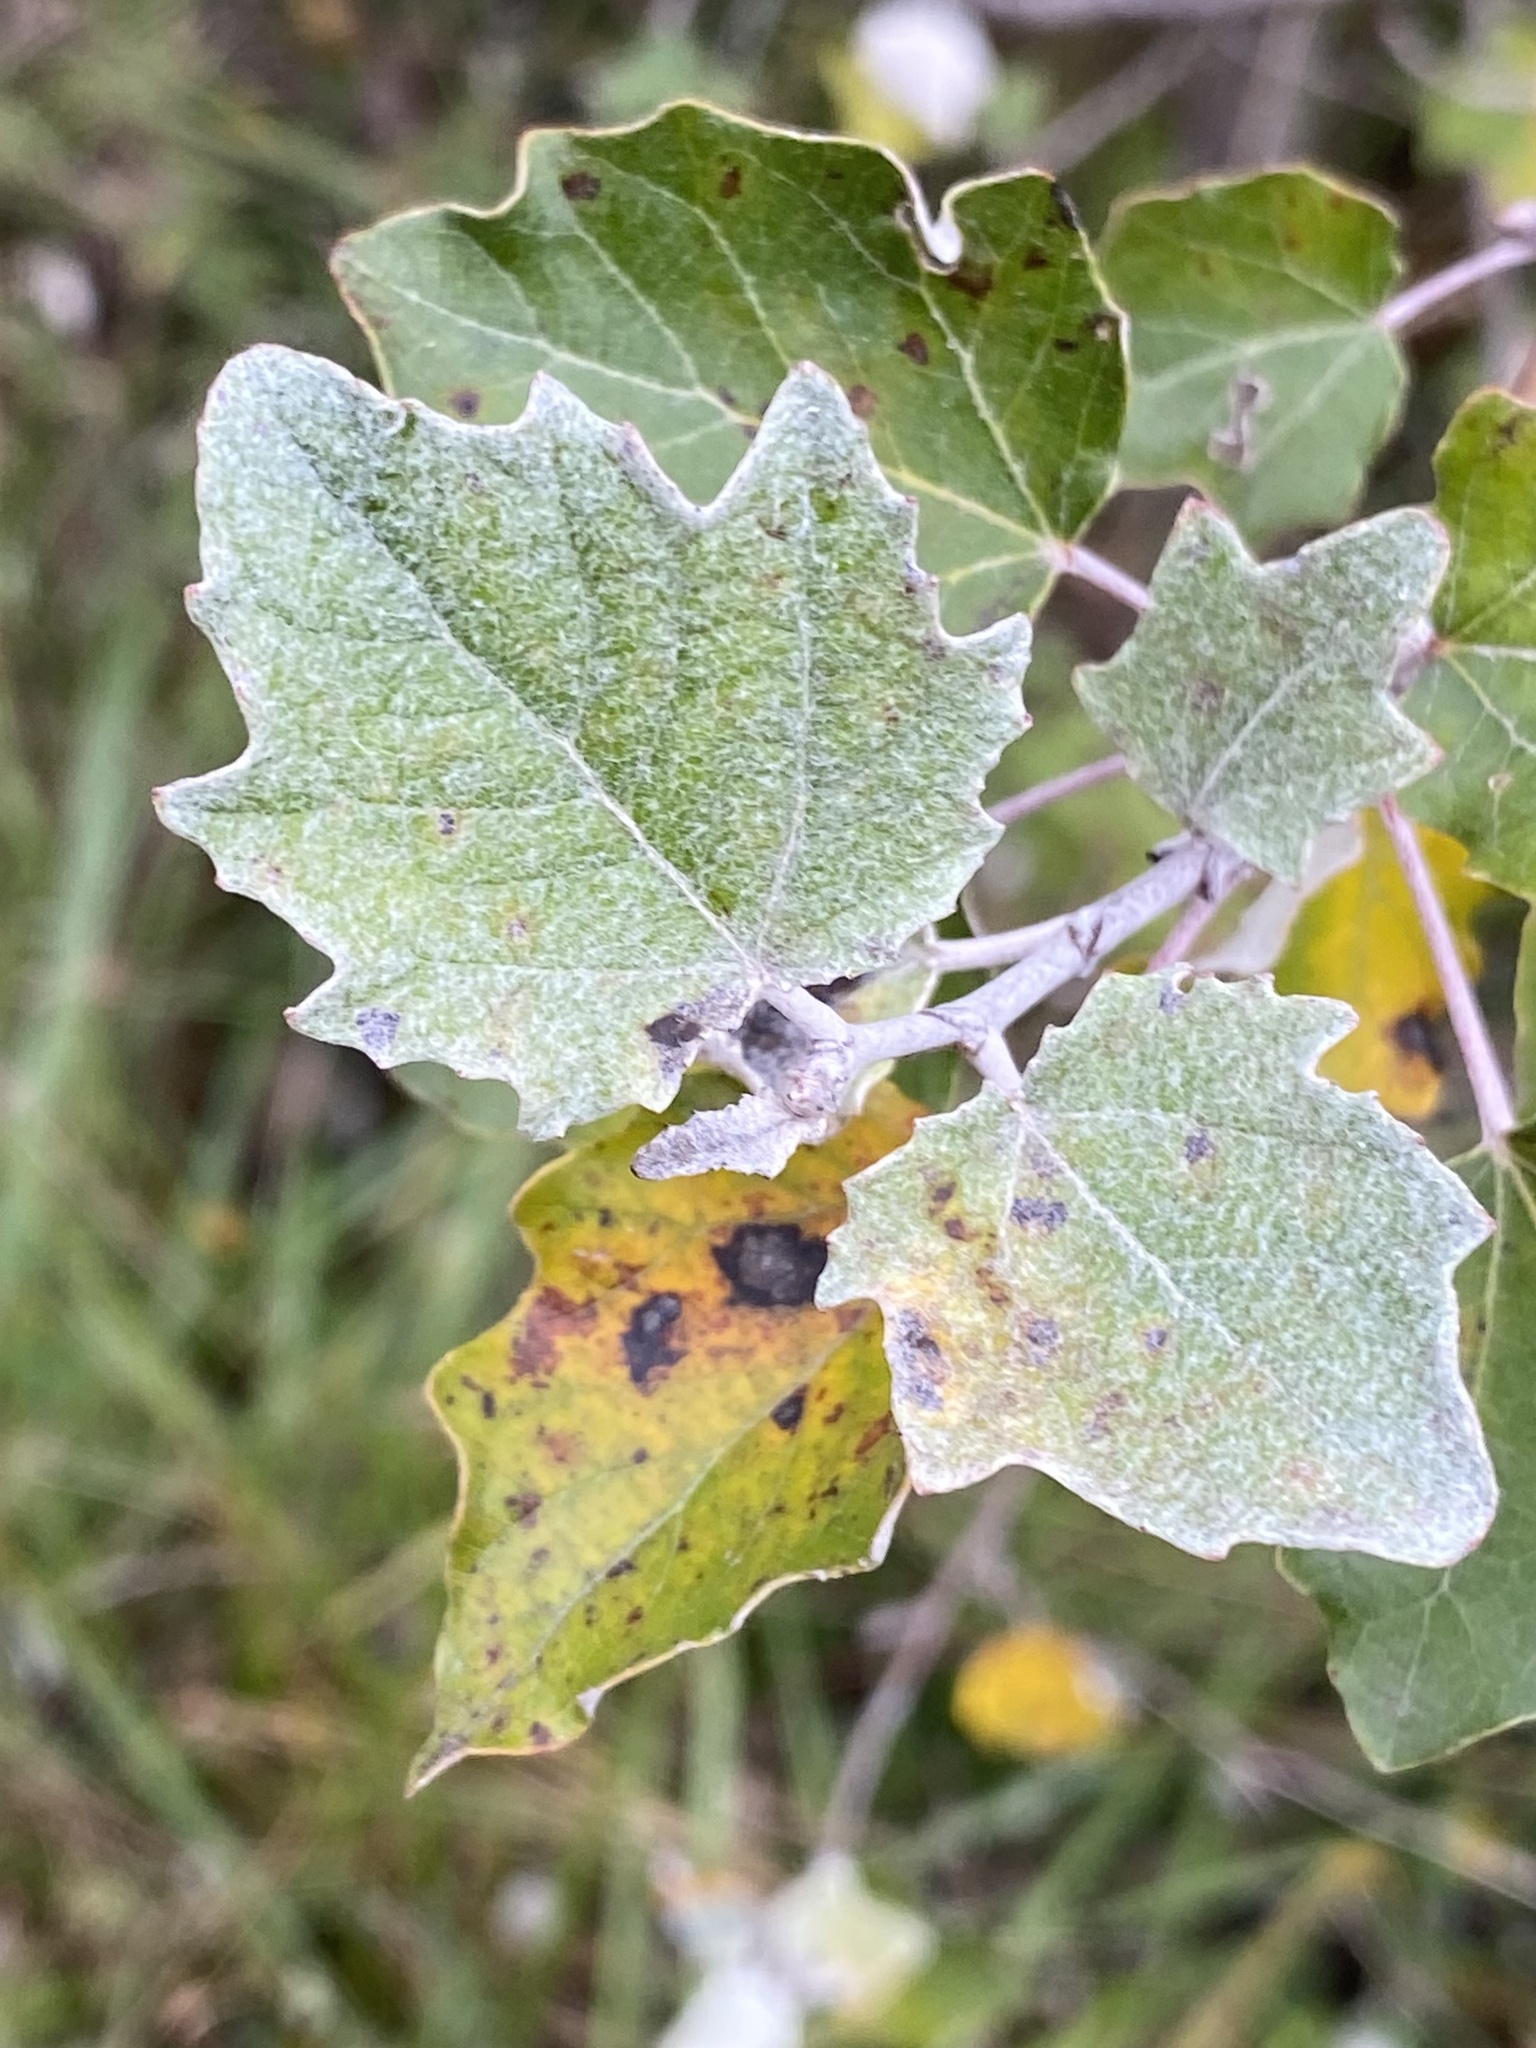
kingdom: Plantae
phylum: Tracheophyta
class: Magnoliopsida
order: Malpighiales
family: Salicaceae
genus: Populus
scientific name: Populus alba
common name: White poplar
